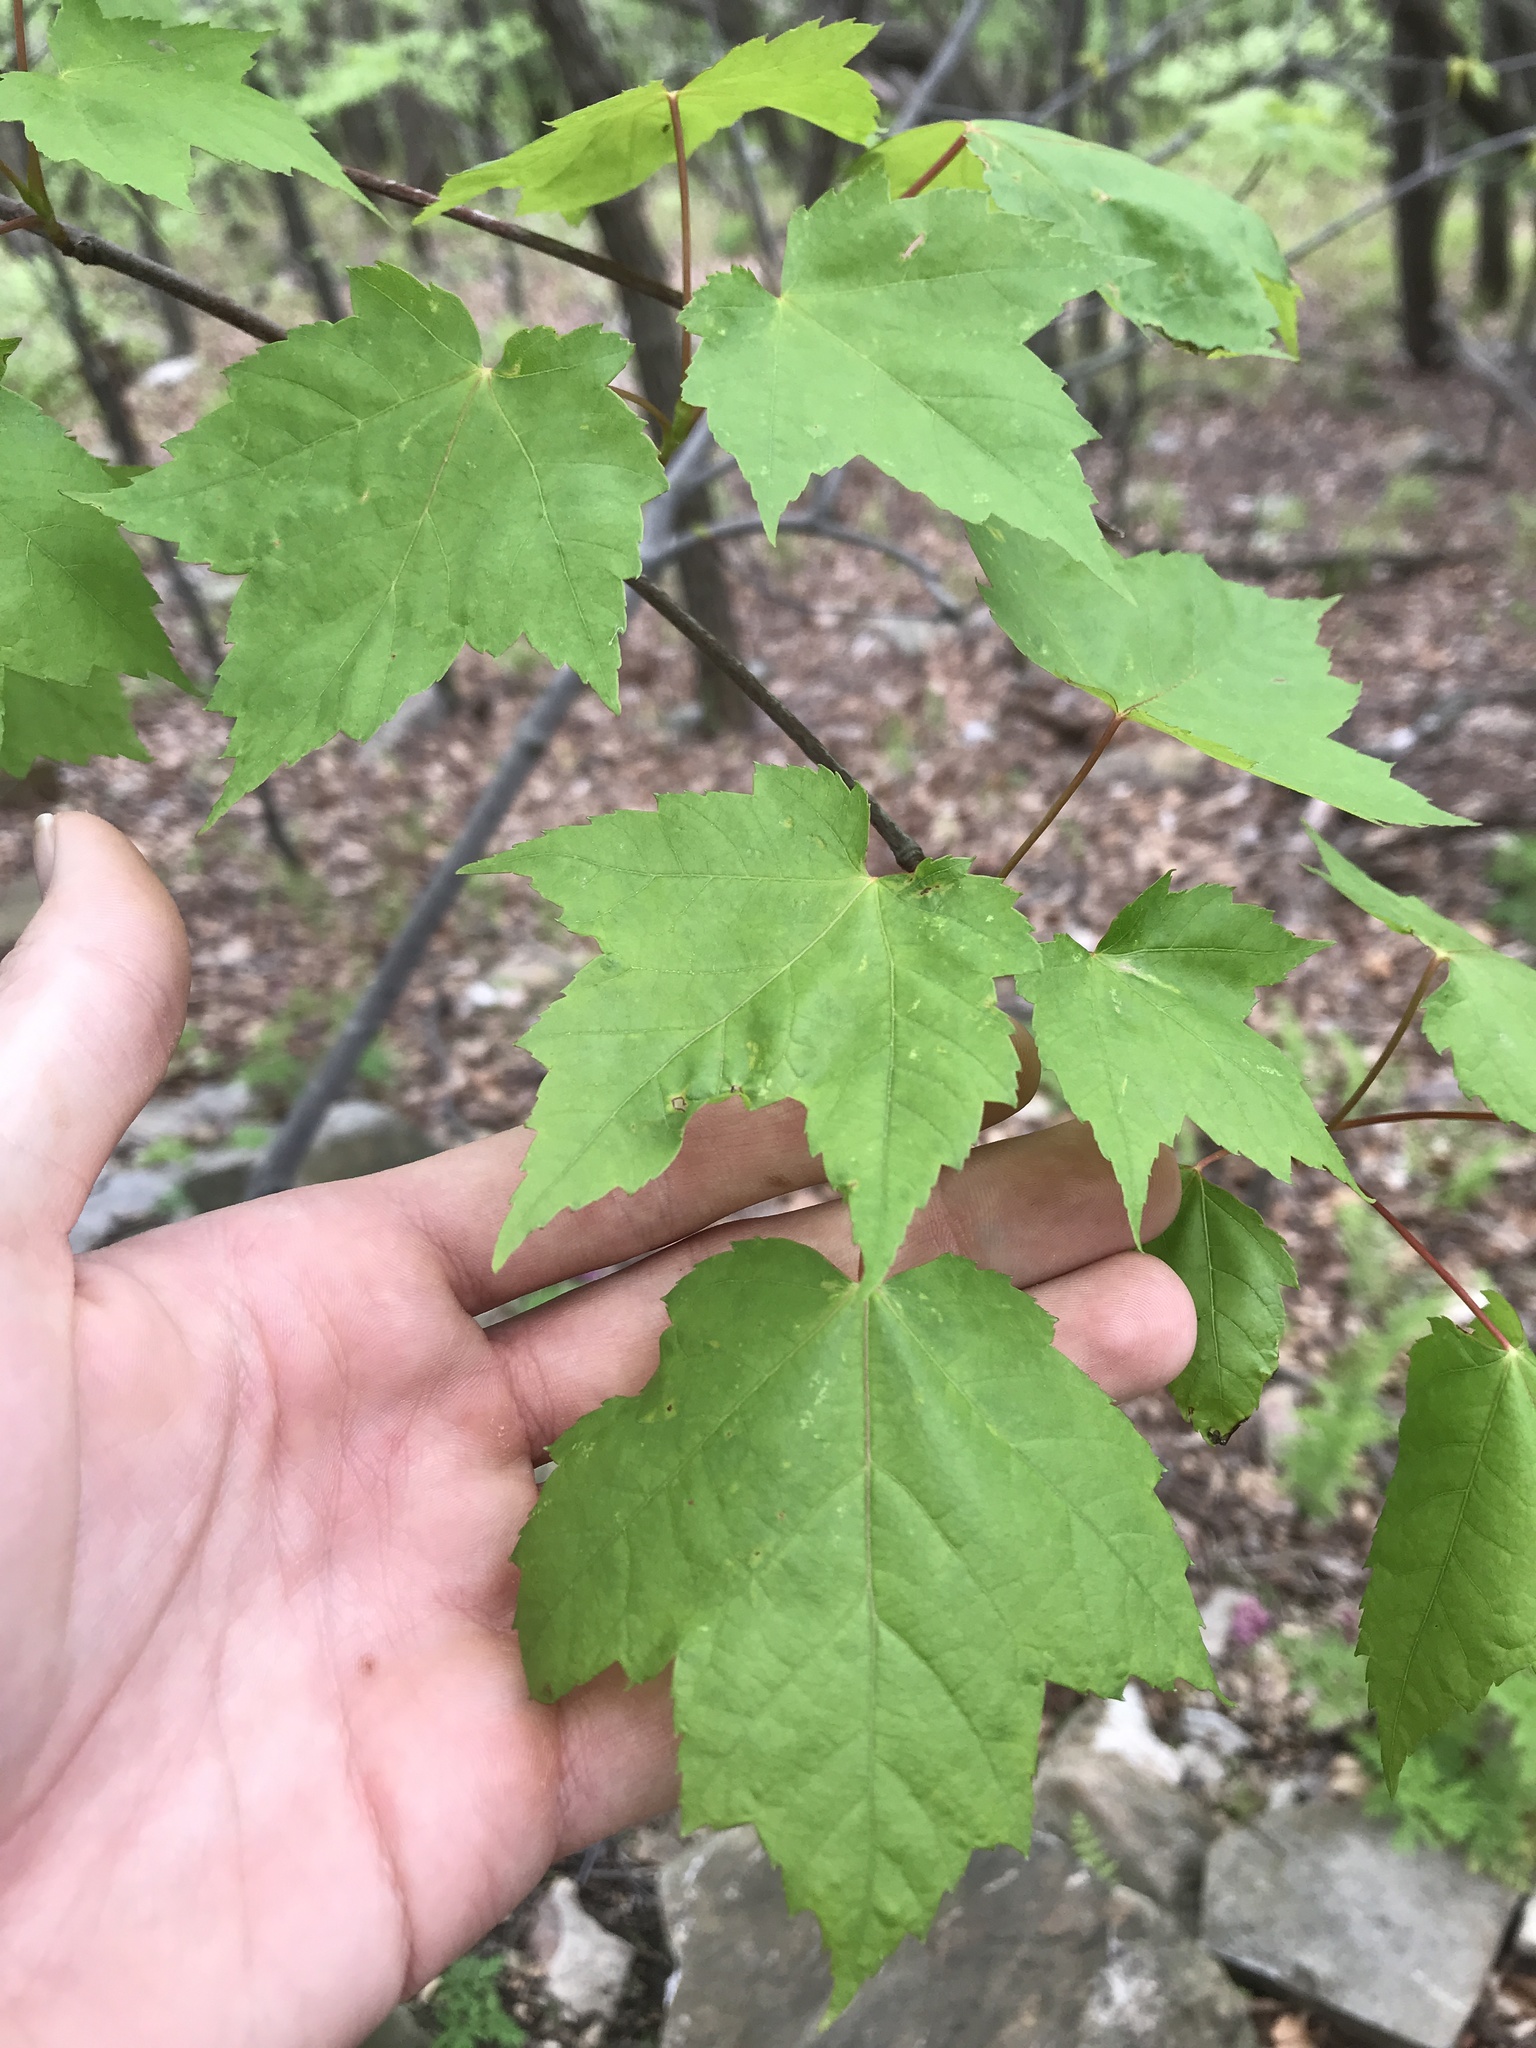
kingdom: Plantae
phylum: Tracheophyta
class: Magnoliopsida
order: Sapindales
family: Sapindaceae
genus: Acer
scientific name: Acer rubrum
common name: Red maple
